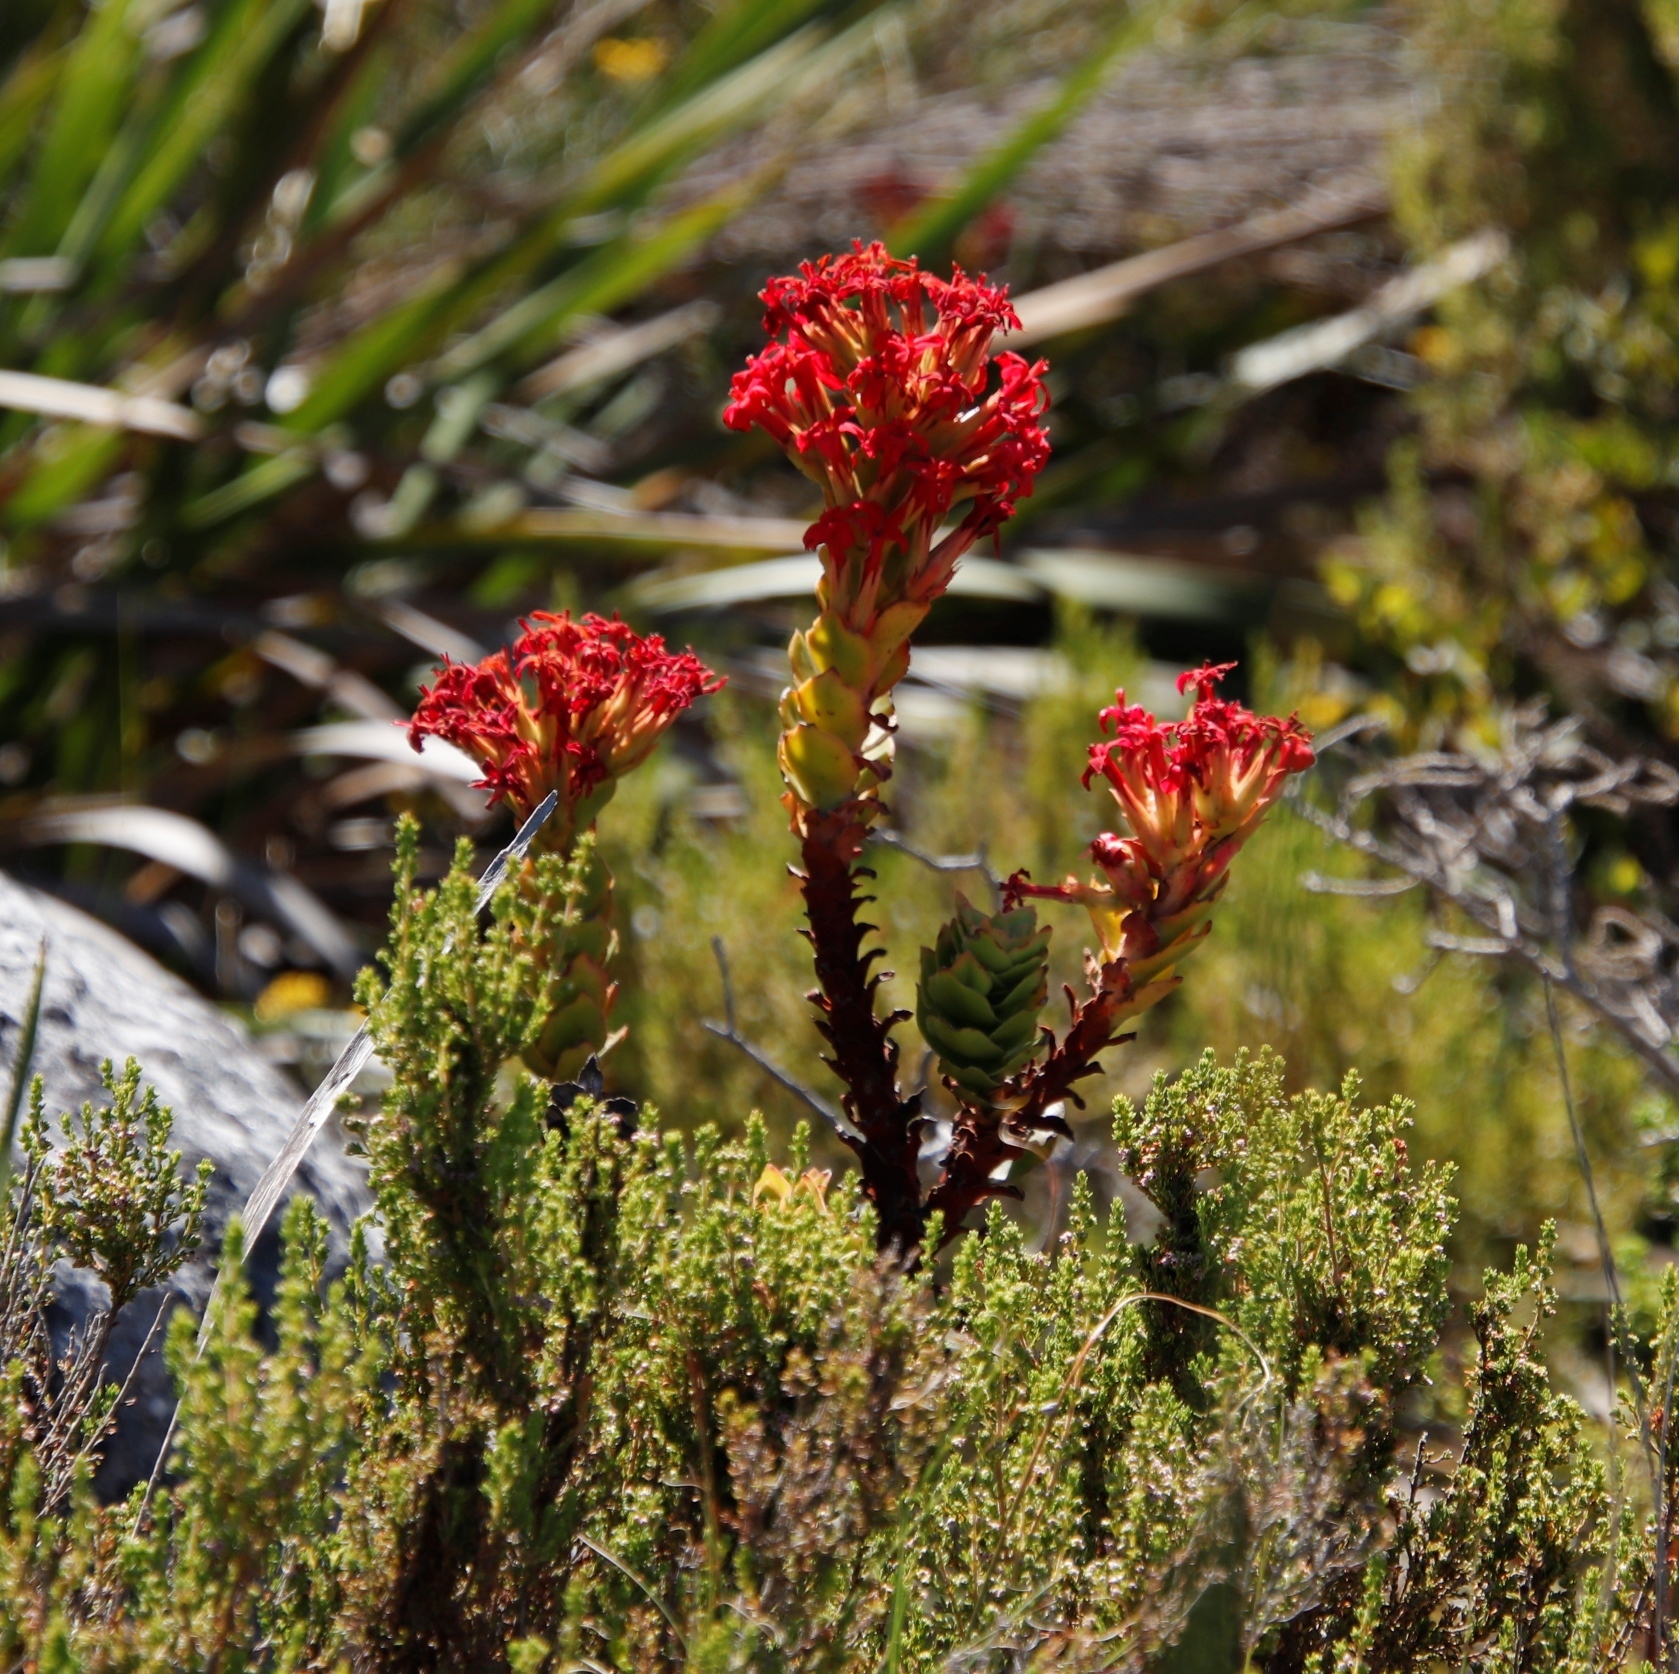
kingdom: Plantae
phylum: Tracheophyta
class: Magnoliopsida
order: Saxifragales
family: Crassulaceae
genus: Crassula
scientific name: Crassula coccinea
